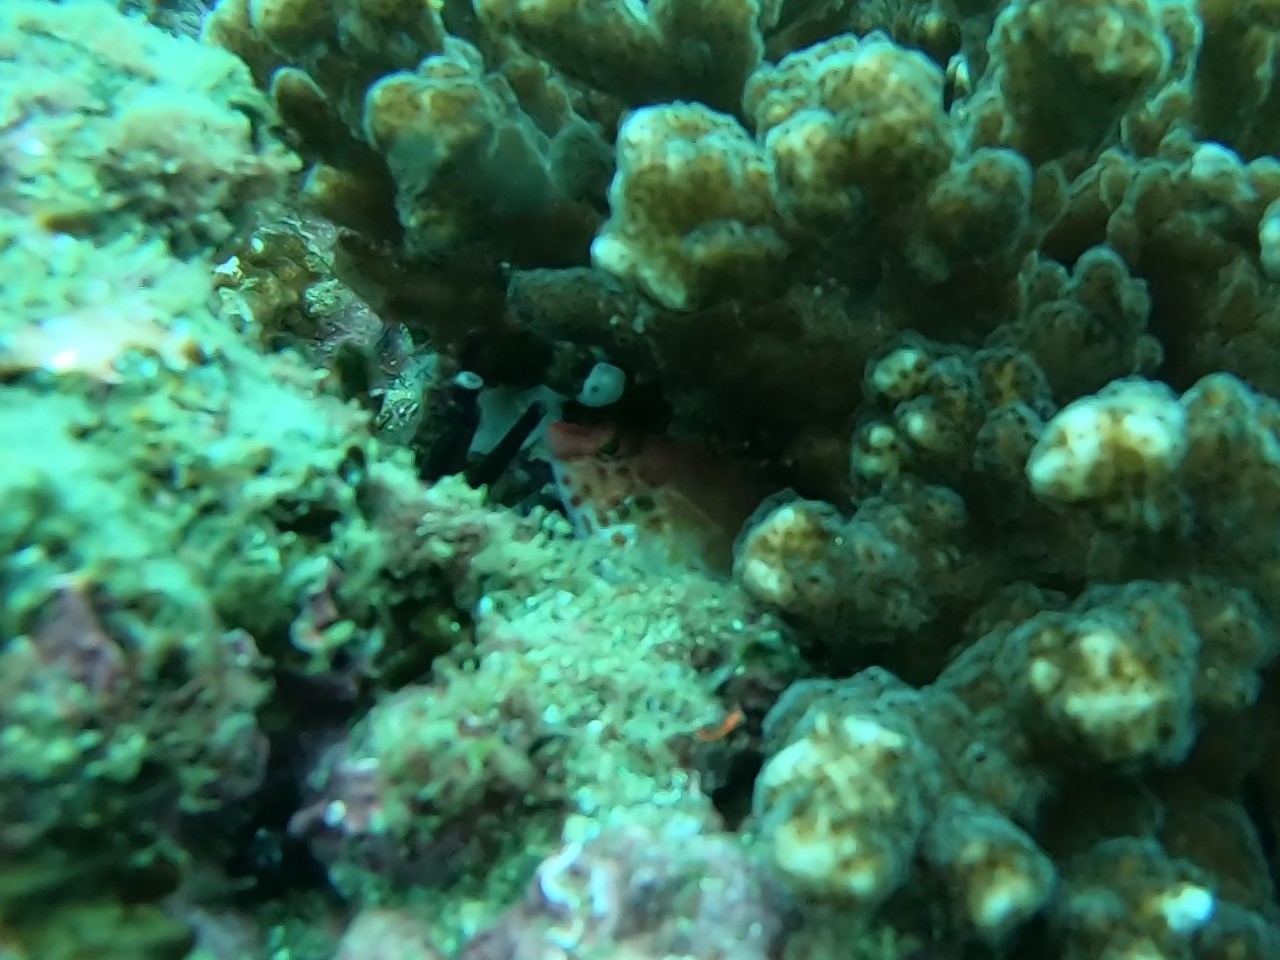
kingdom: Animalia
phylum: Chordata
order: Perciformes
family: Cirrhitidae
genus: Cirrhitichthys
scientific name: Cirrhitichthys oxycephalus
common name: Spotted hawkfish
